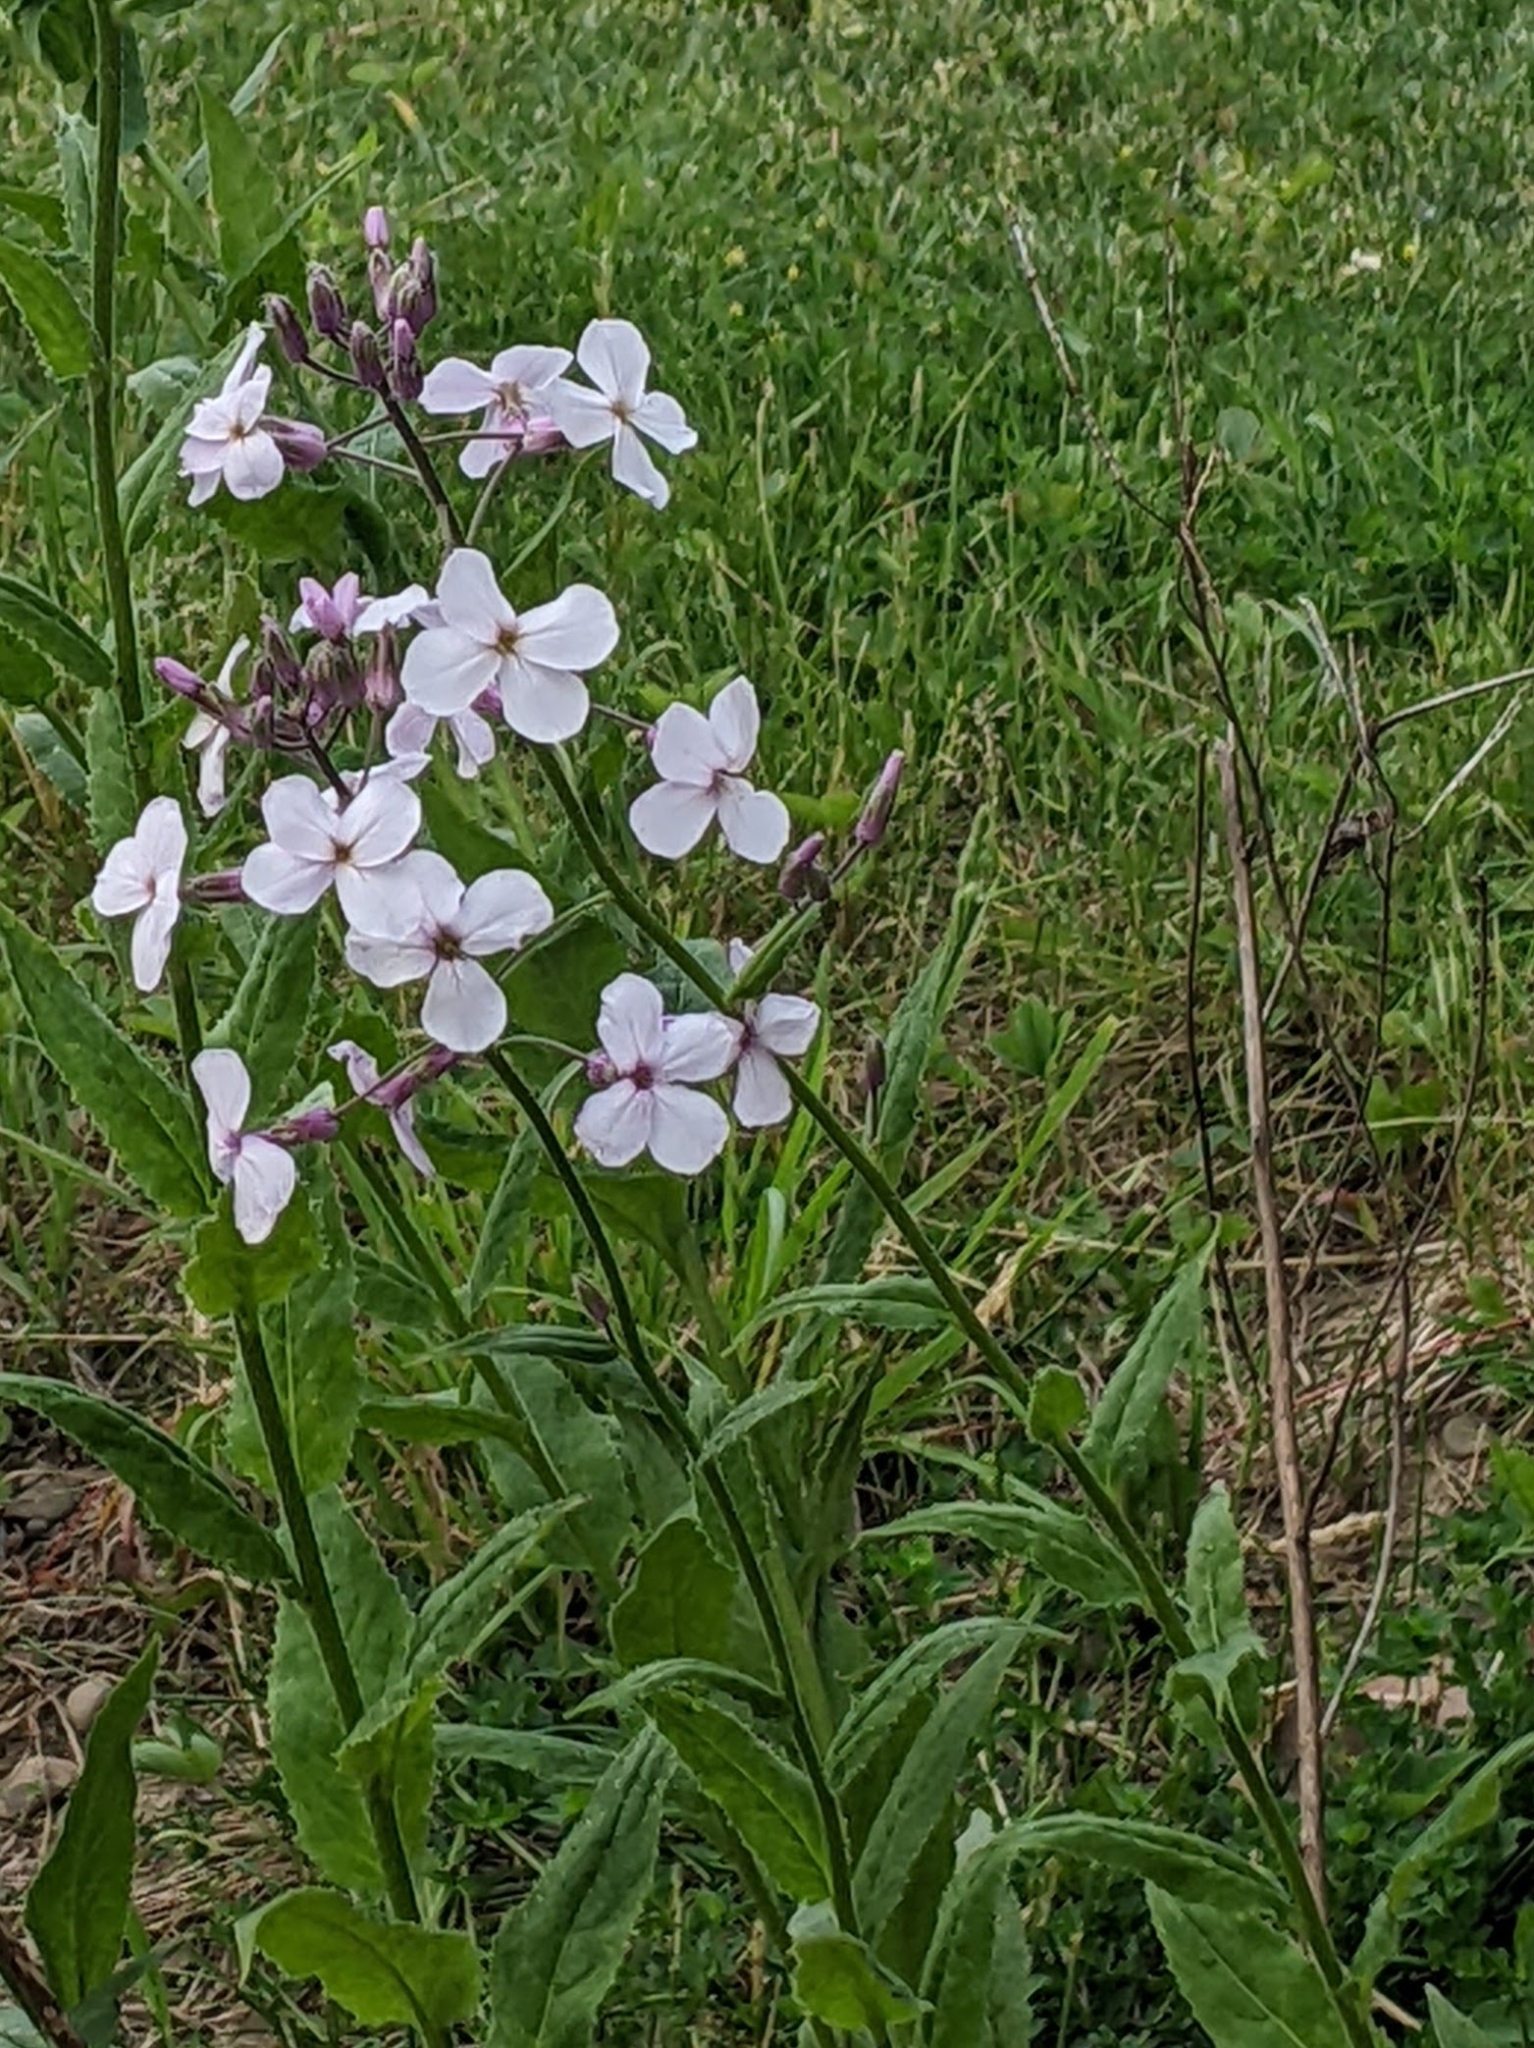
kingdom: Plantae
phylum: Tracheophyta
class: Magnoliopsida
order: Brassicales
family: Brassicaceae
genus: Hesperis
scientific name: Hesperis matronalis
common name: Dame's-violet
